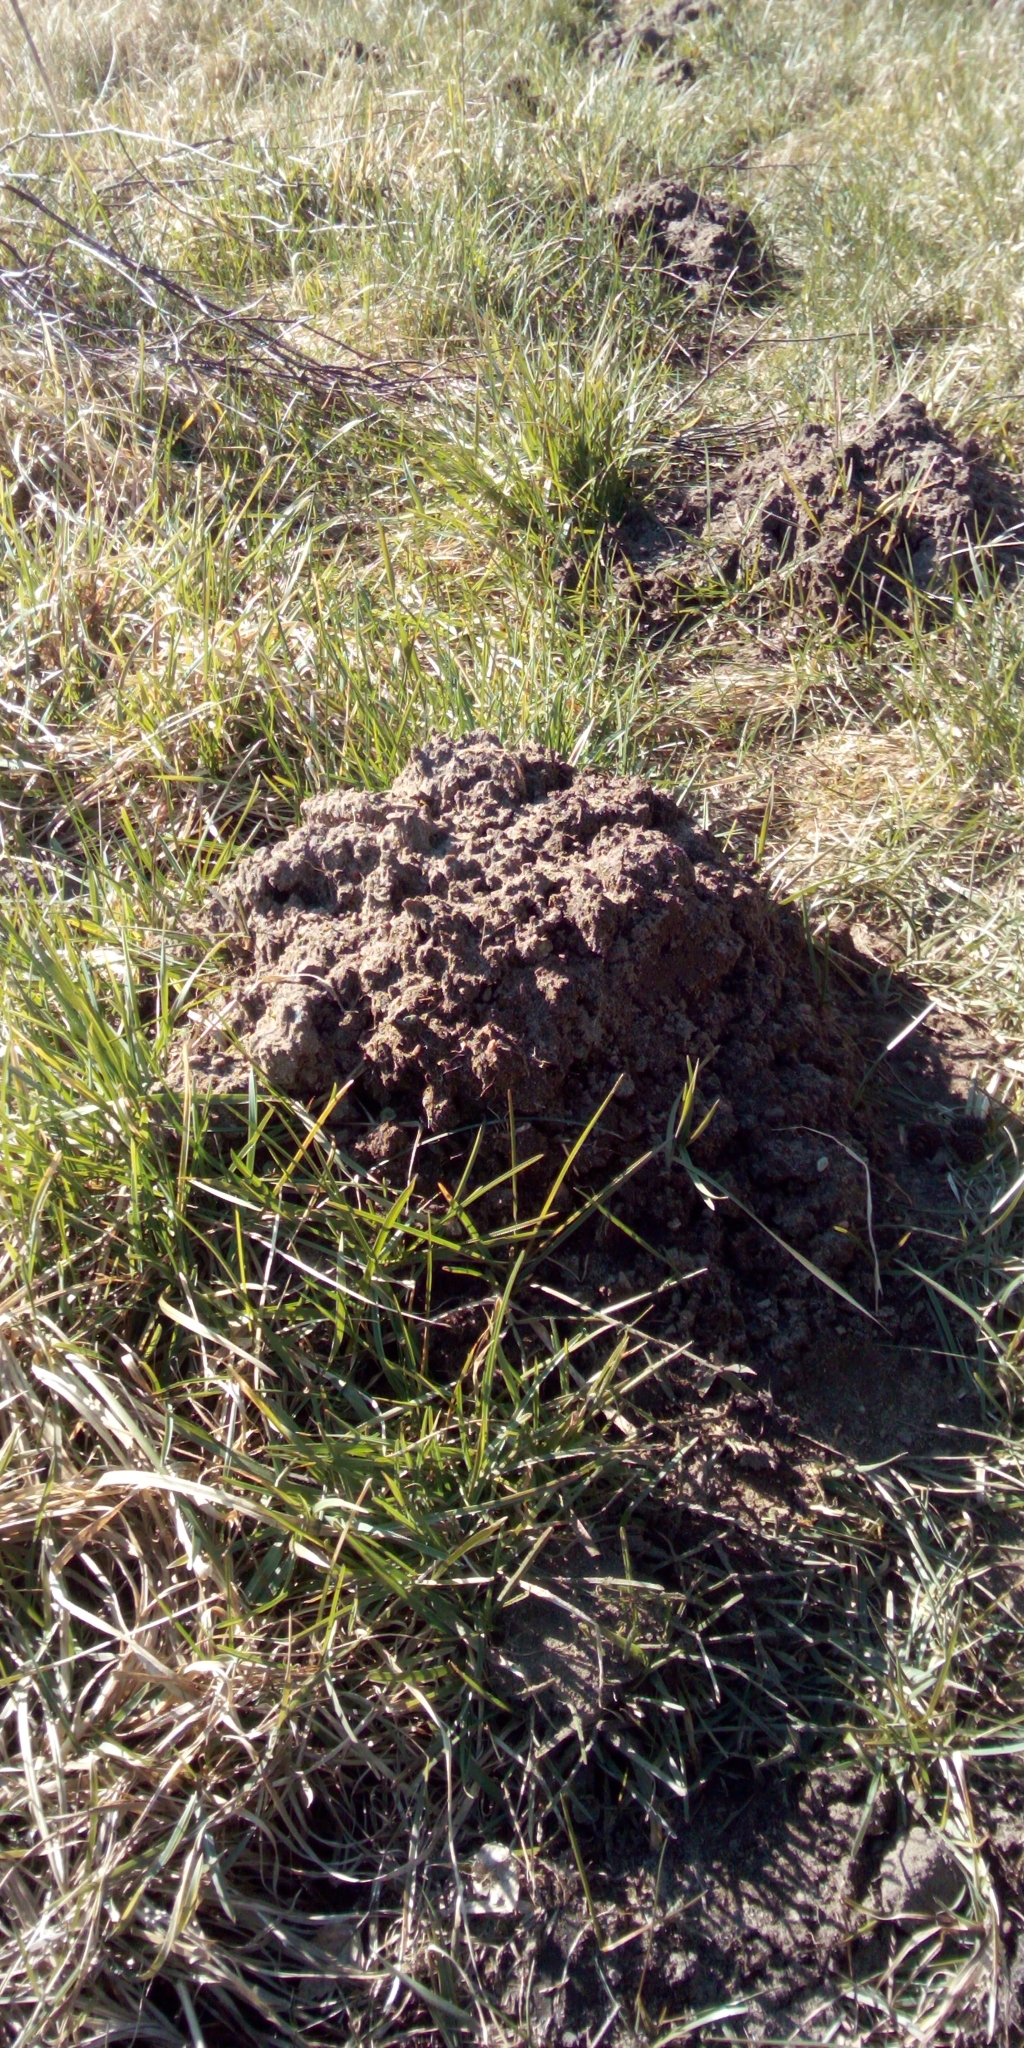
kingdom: Animalia
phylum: Chordata
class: Mammalia
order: Soricomorpha
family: Talpidae
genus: Talpa
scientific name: Talpa europaea
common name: European mole
